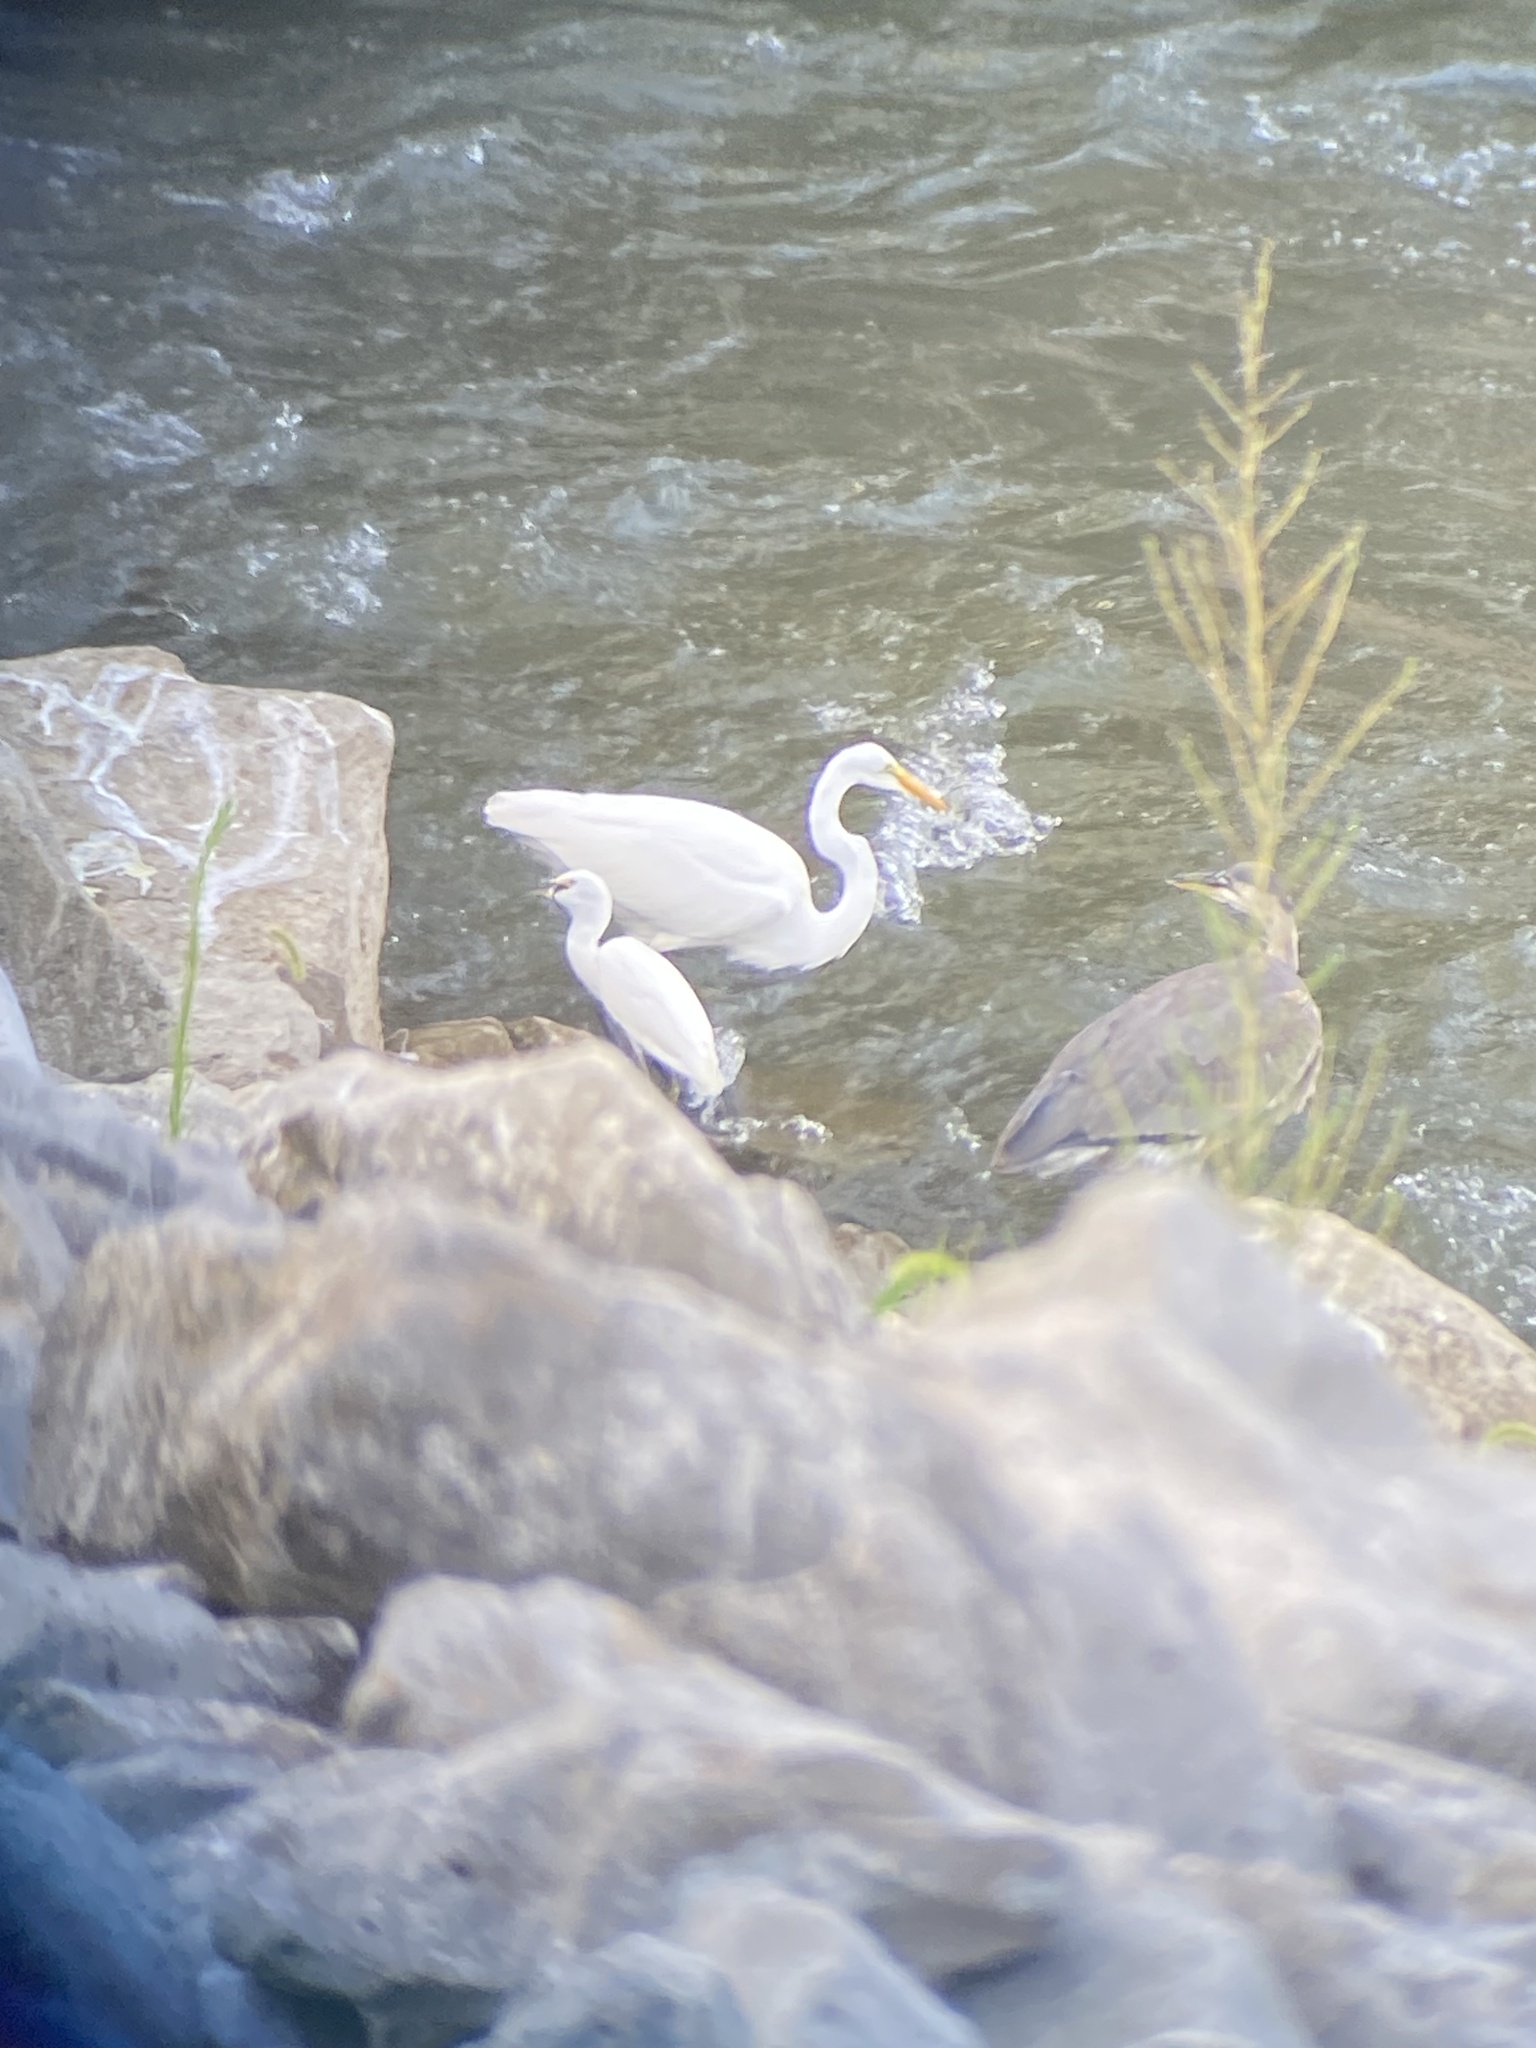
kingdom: Animalia
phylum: Chordata
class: Aves
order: Pelecaniformes
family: Ardeidae
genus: Ardea
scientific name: Ardea alba
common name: Great egret
